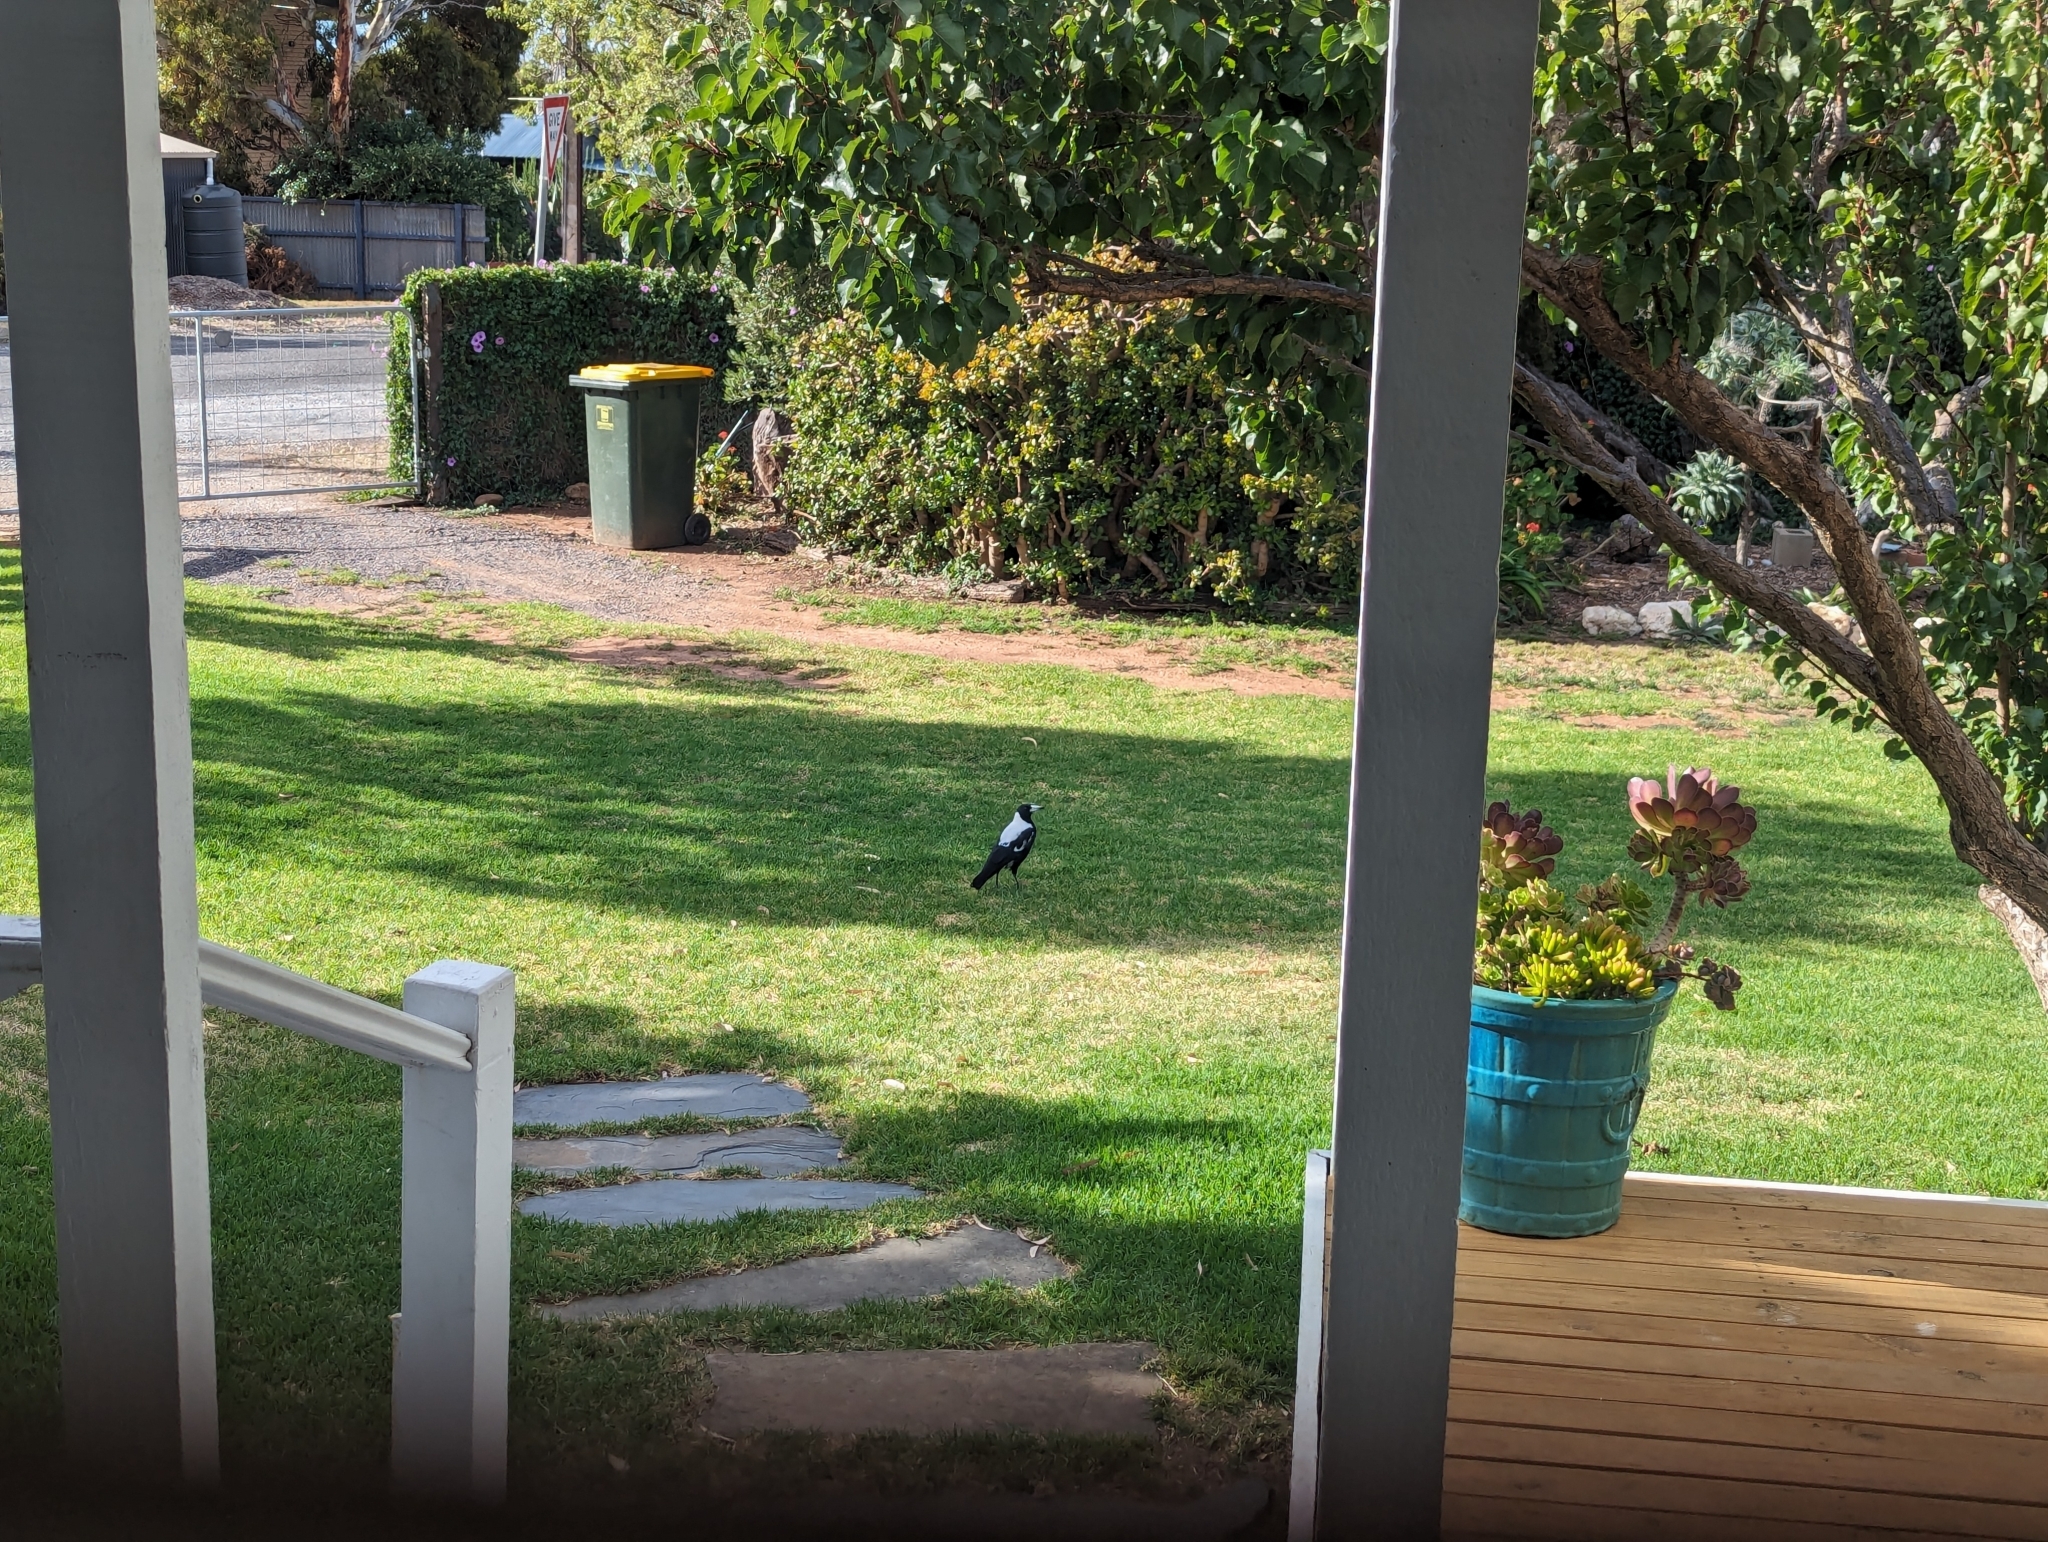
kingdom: Animalia
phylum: Chordata
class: Aves
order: Passeriformes
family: Cracticidae
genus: Gymnorhina
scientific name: Gymnorhina tibicen
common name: Australian magpie
